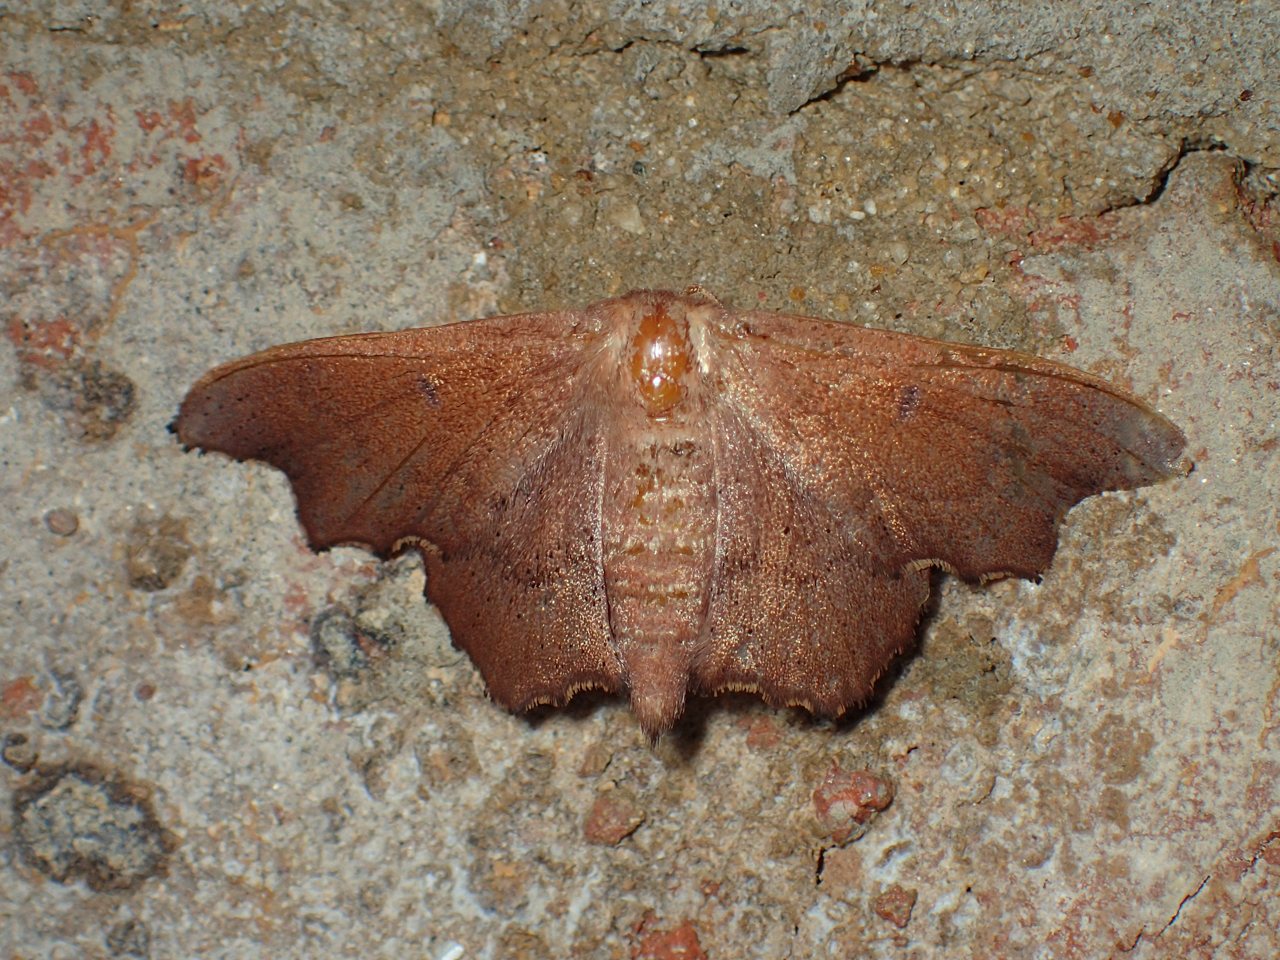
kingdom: Animalia
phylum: Arthropoda
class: Insecta
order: Lepidoptera
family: Mimallonidae
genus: Lacosoma
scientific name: Lacosoma chiridota
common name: Scalloped sack-bearer moth
